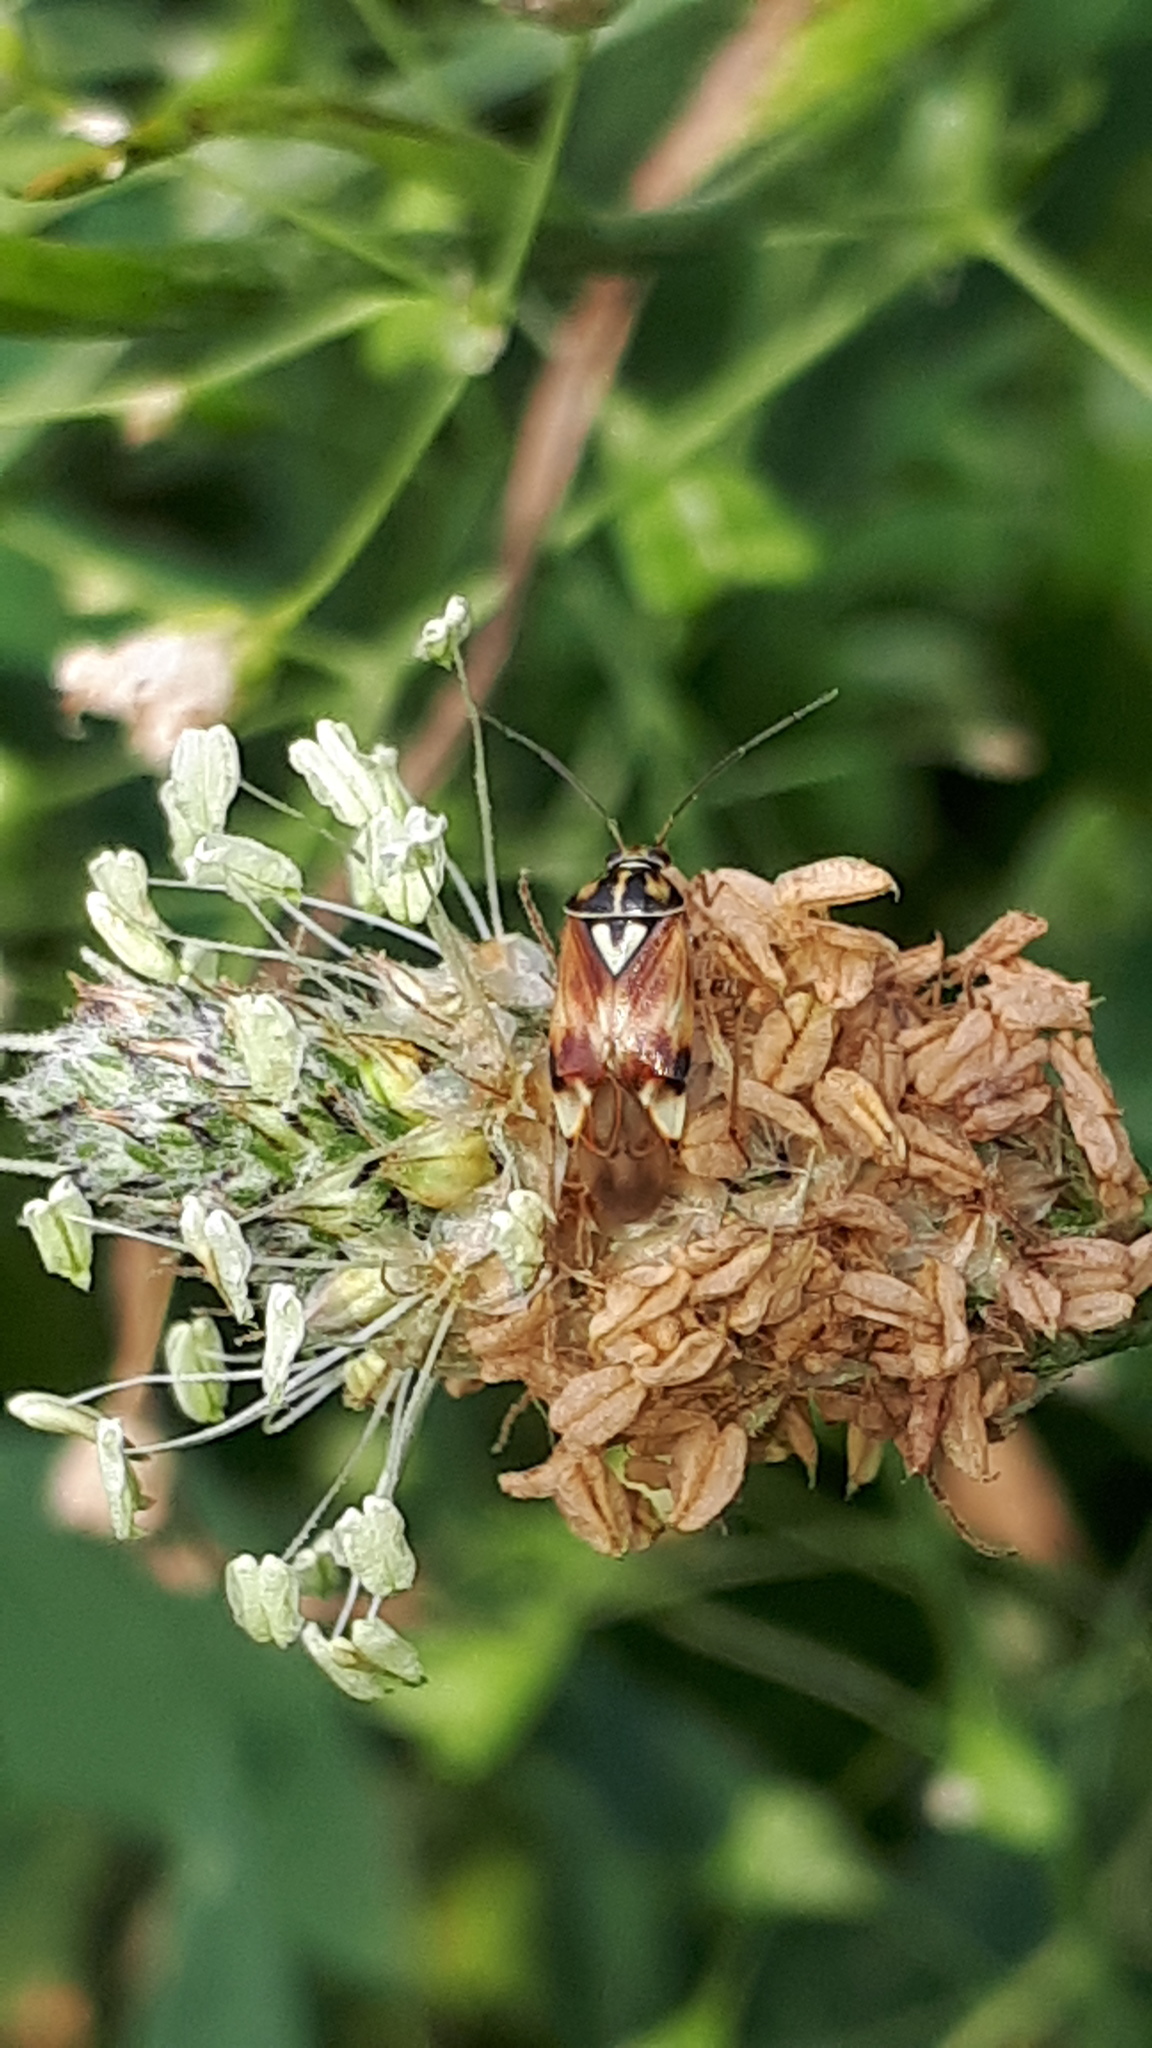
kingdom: Animalia
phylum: Arthropoda
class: Insecta
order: Hemiptera
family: Miridae
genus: Lygus
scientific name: Lygus pratensis
